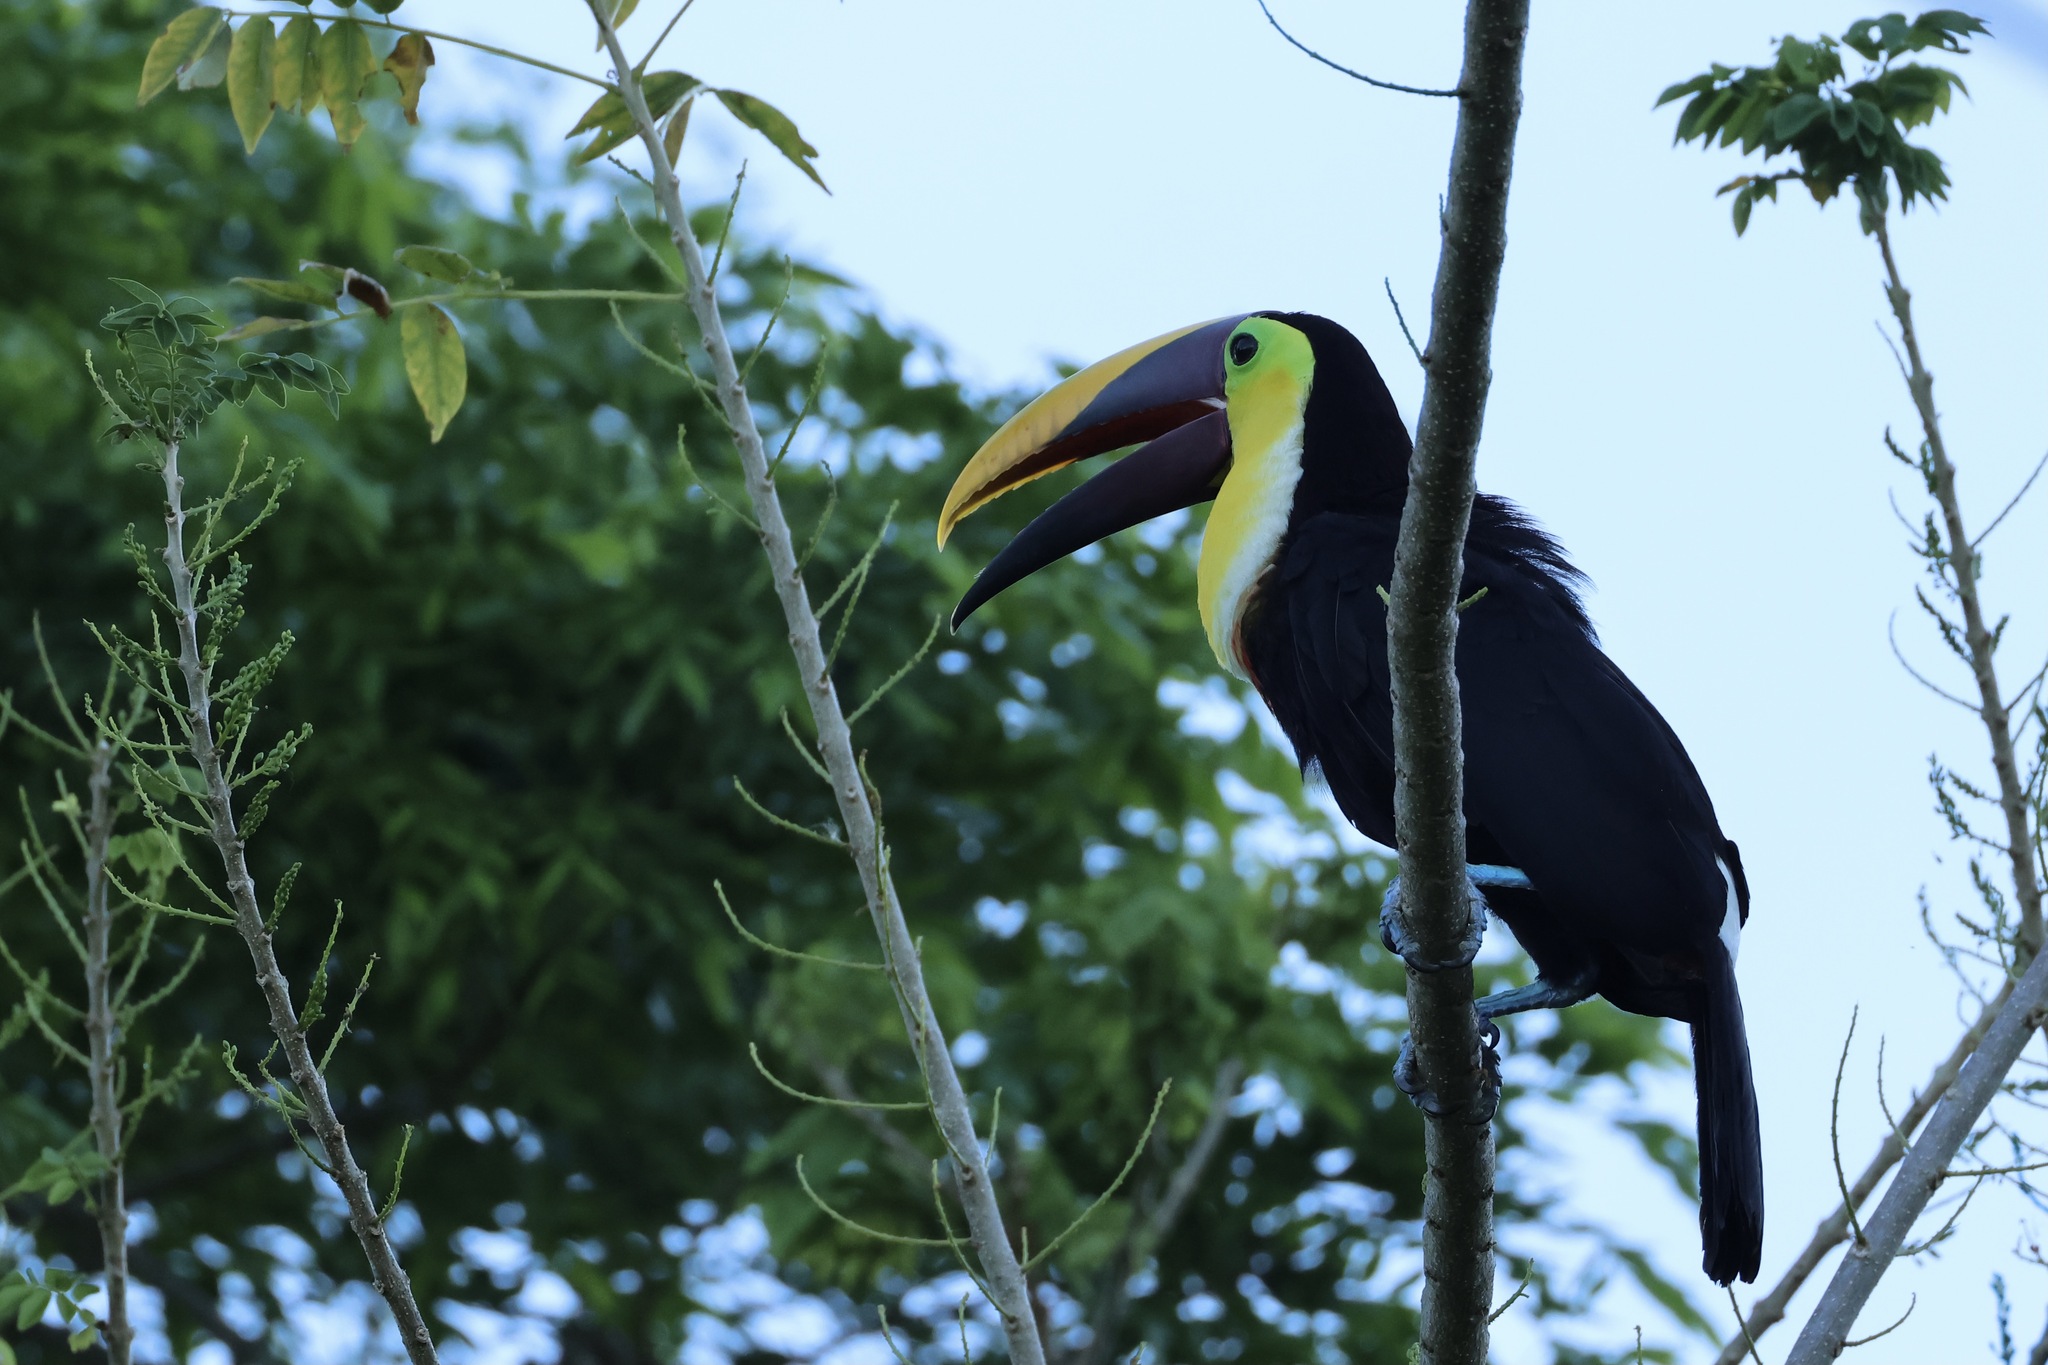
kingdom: Animalia
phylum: Chordata
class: Aves
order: Piciformes
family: Ramphastidae
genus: Ramphastos
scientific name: Ramphastos ambiguus
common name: Yellow-throated toucan
